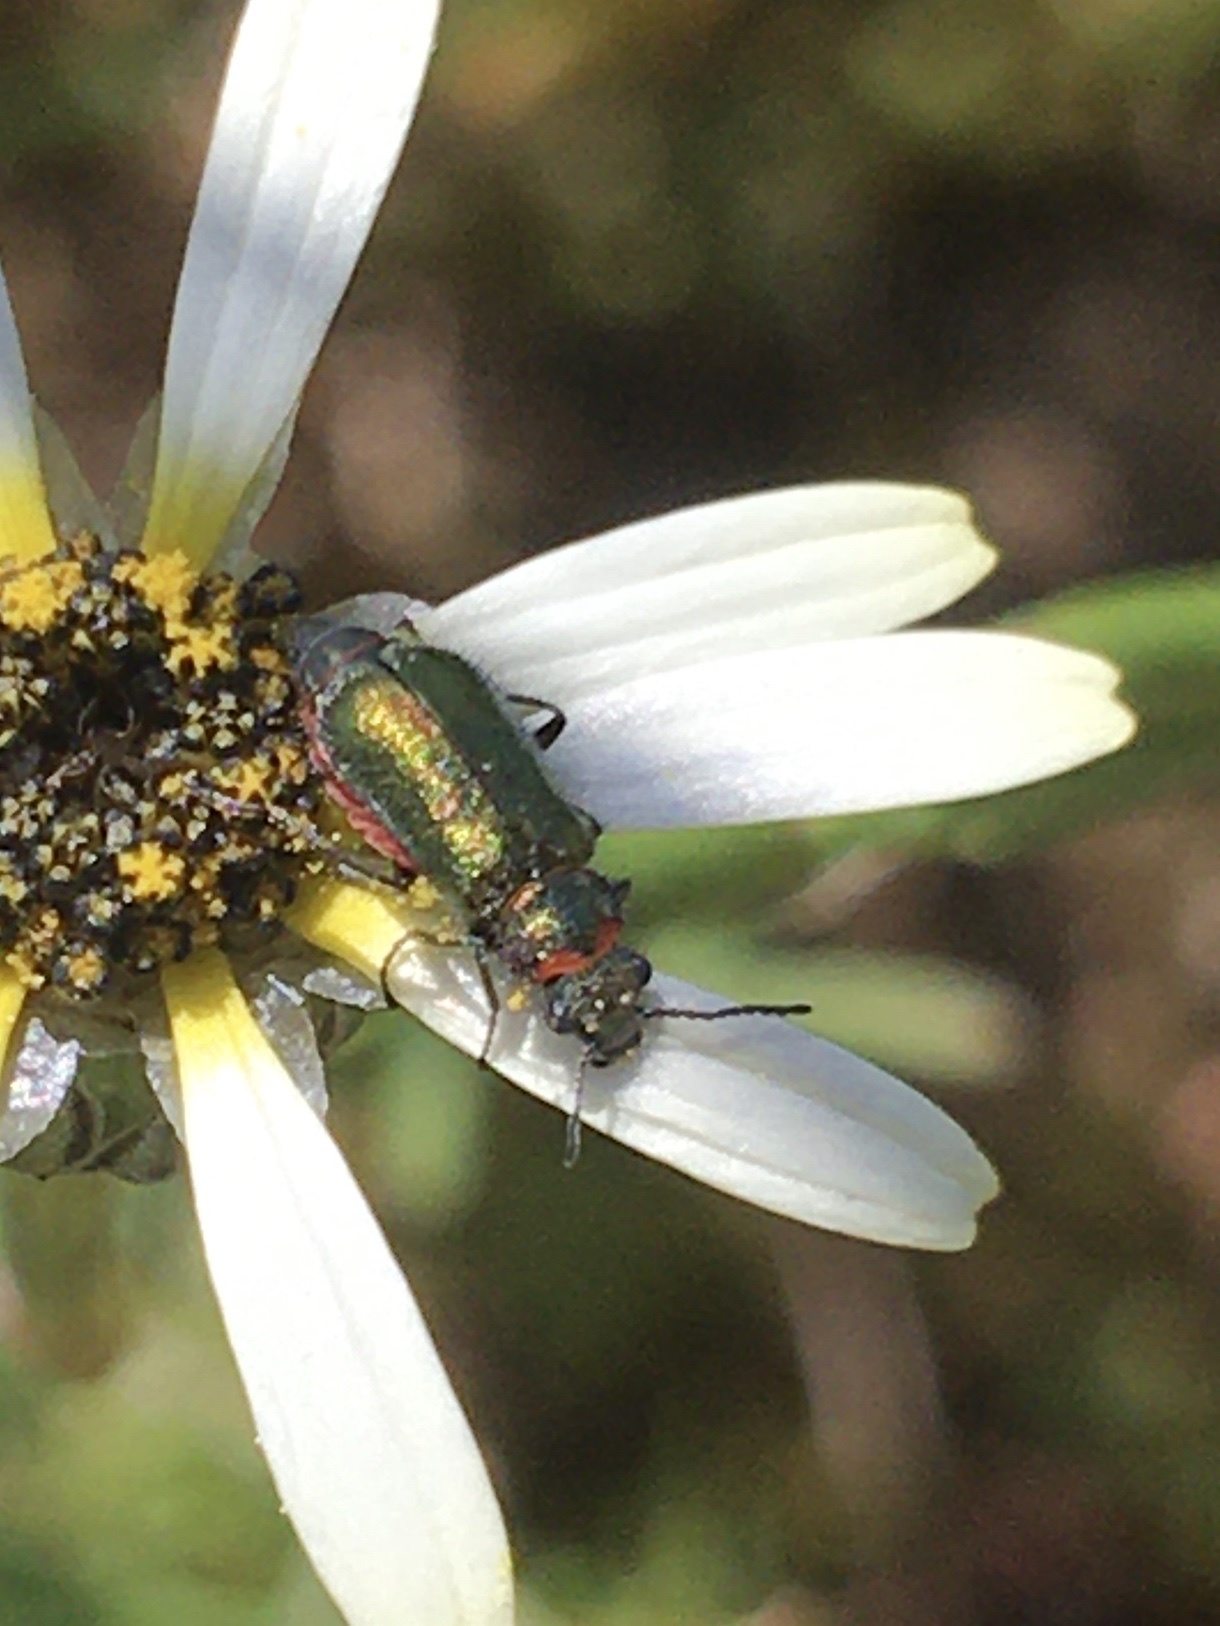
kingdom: Animalia
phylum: Arthropoda
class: Insecta
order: Coleoptera
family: Melyridae
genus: Hedybius
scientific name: Hedybius
